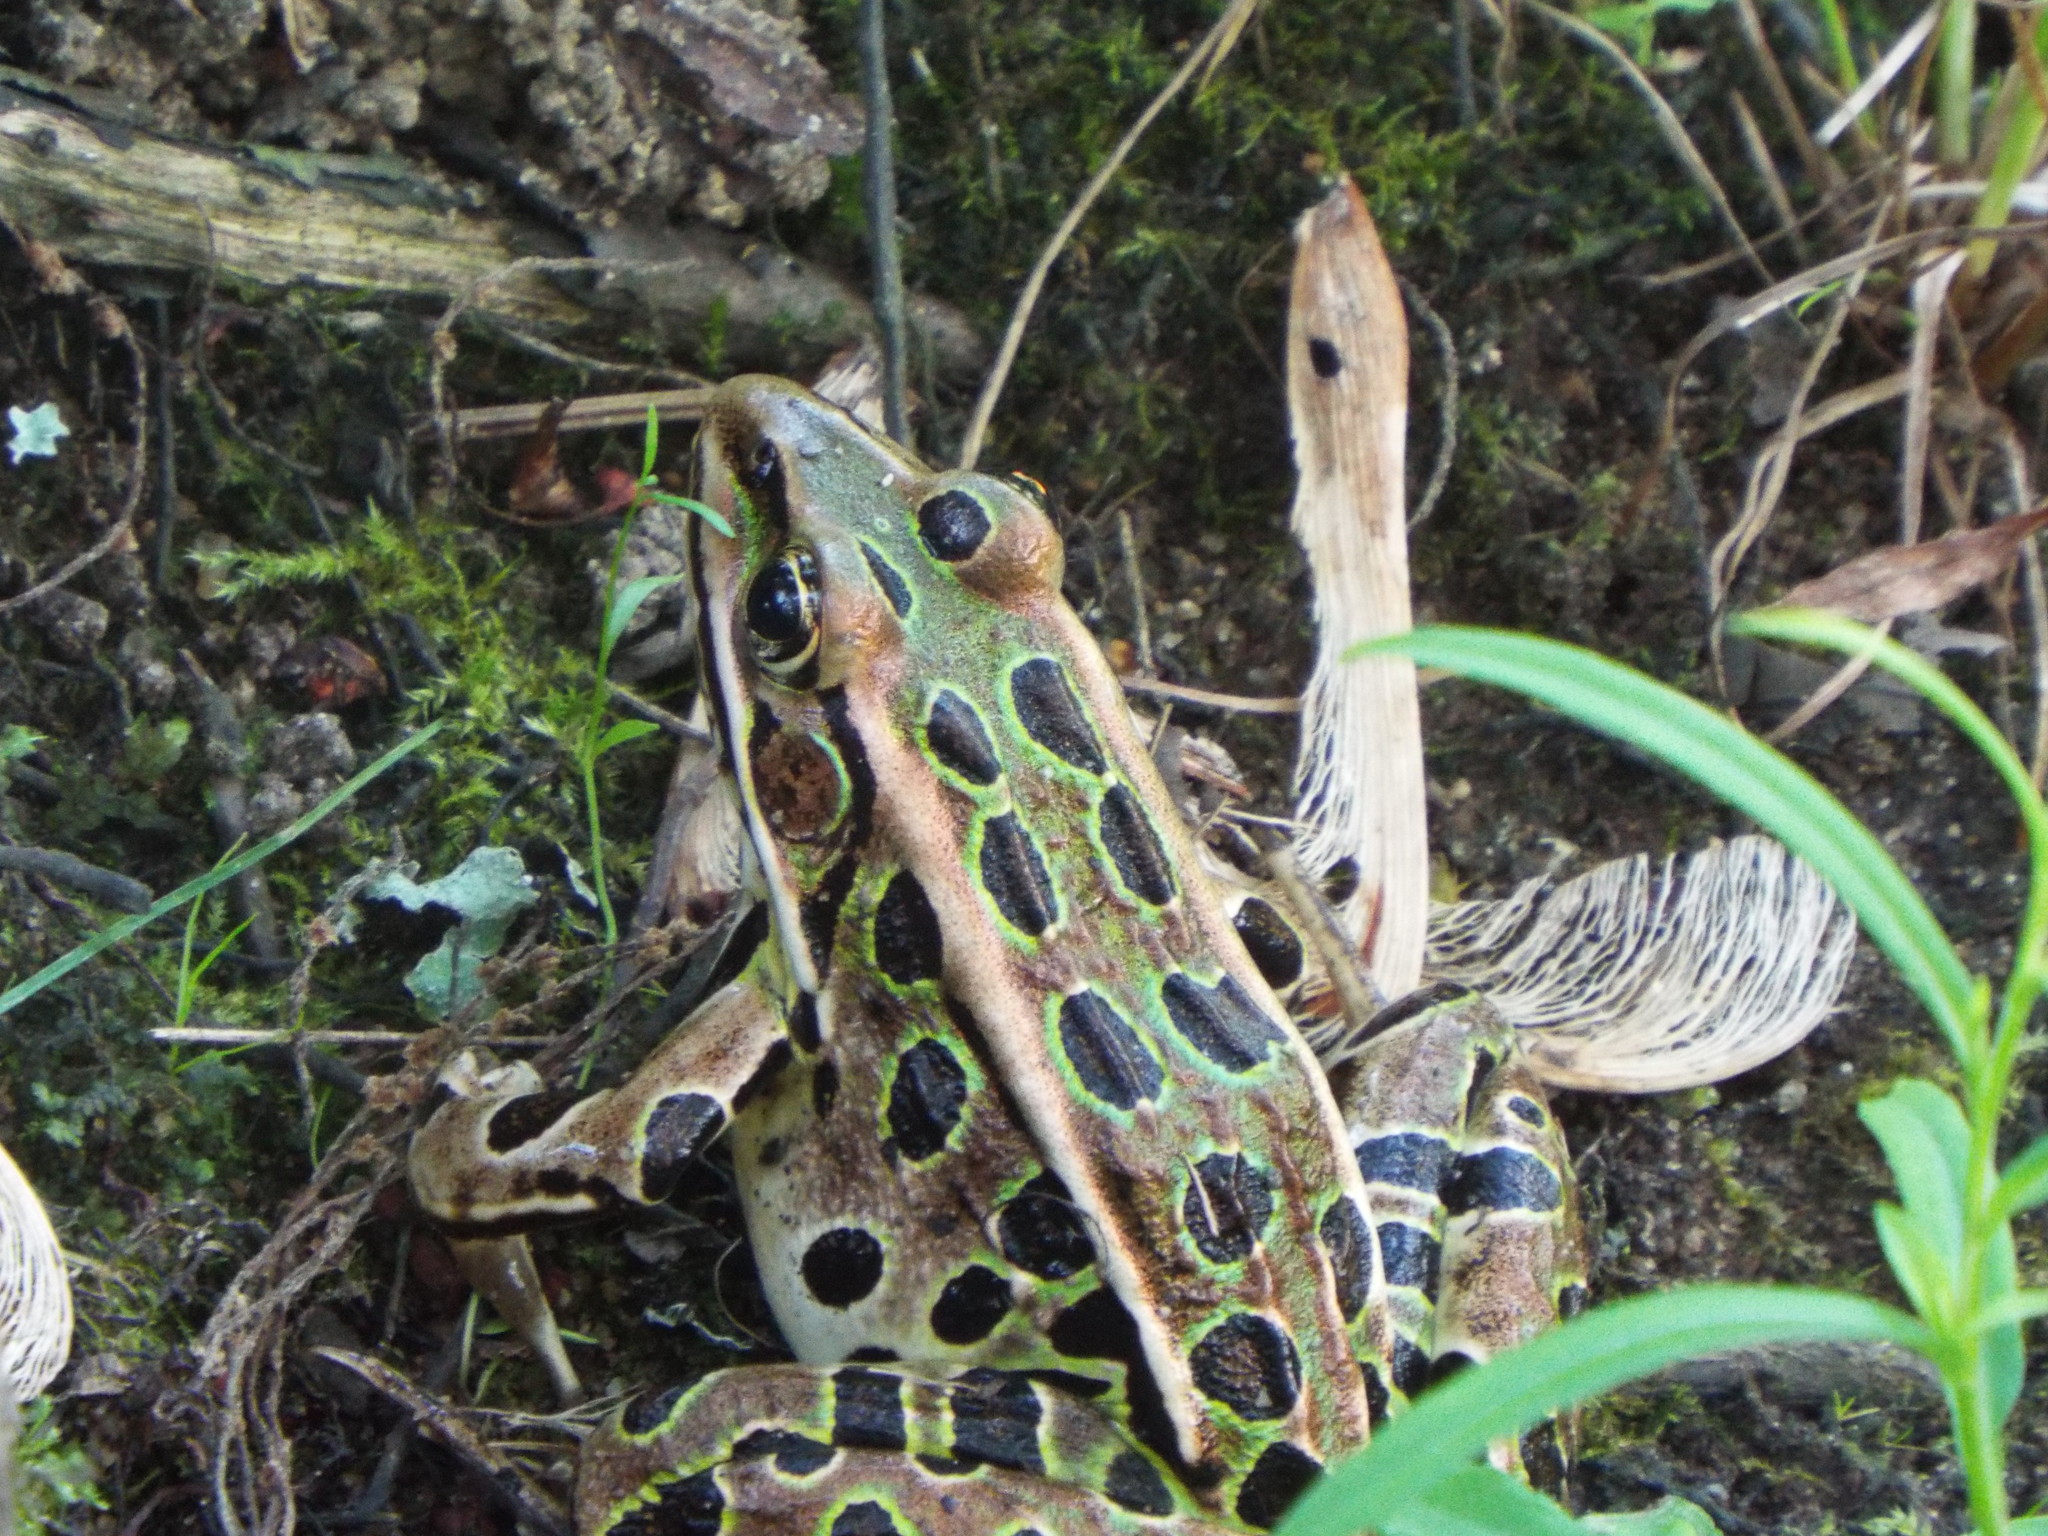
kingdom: Animalia
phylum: Chordata
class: Amphibia
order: Anura
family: Ranidae
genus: Lithobates
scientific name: Lithobates pipiens
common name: Northern leopard frog
